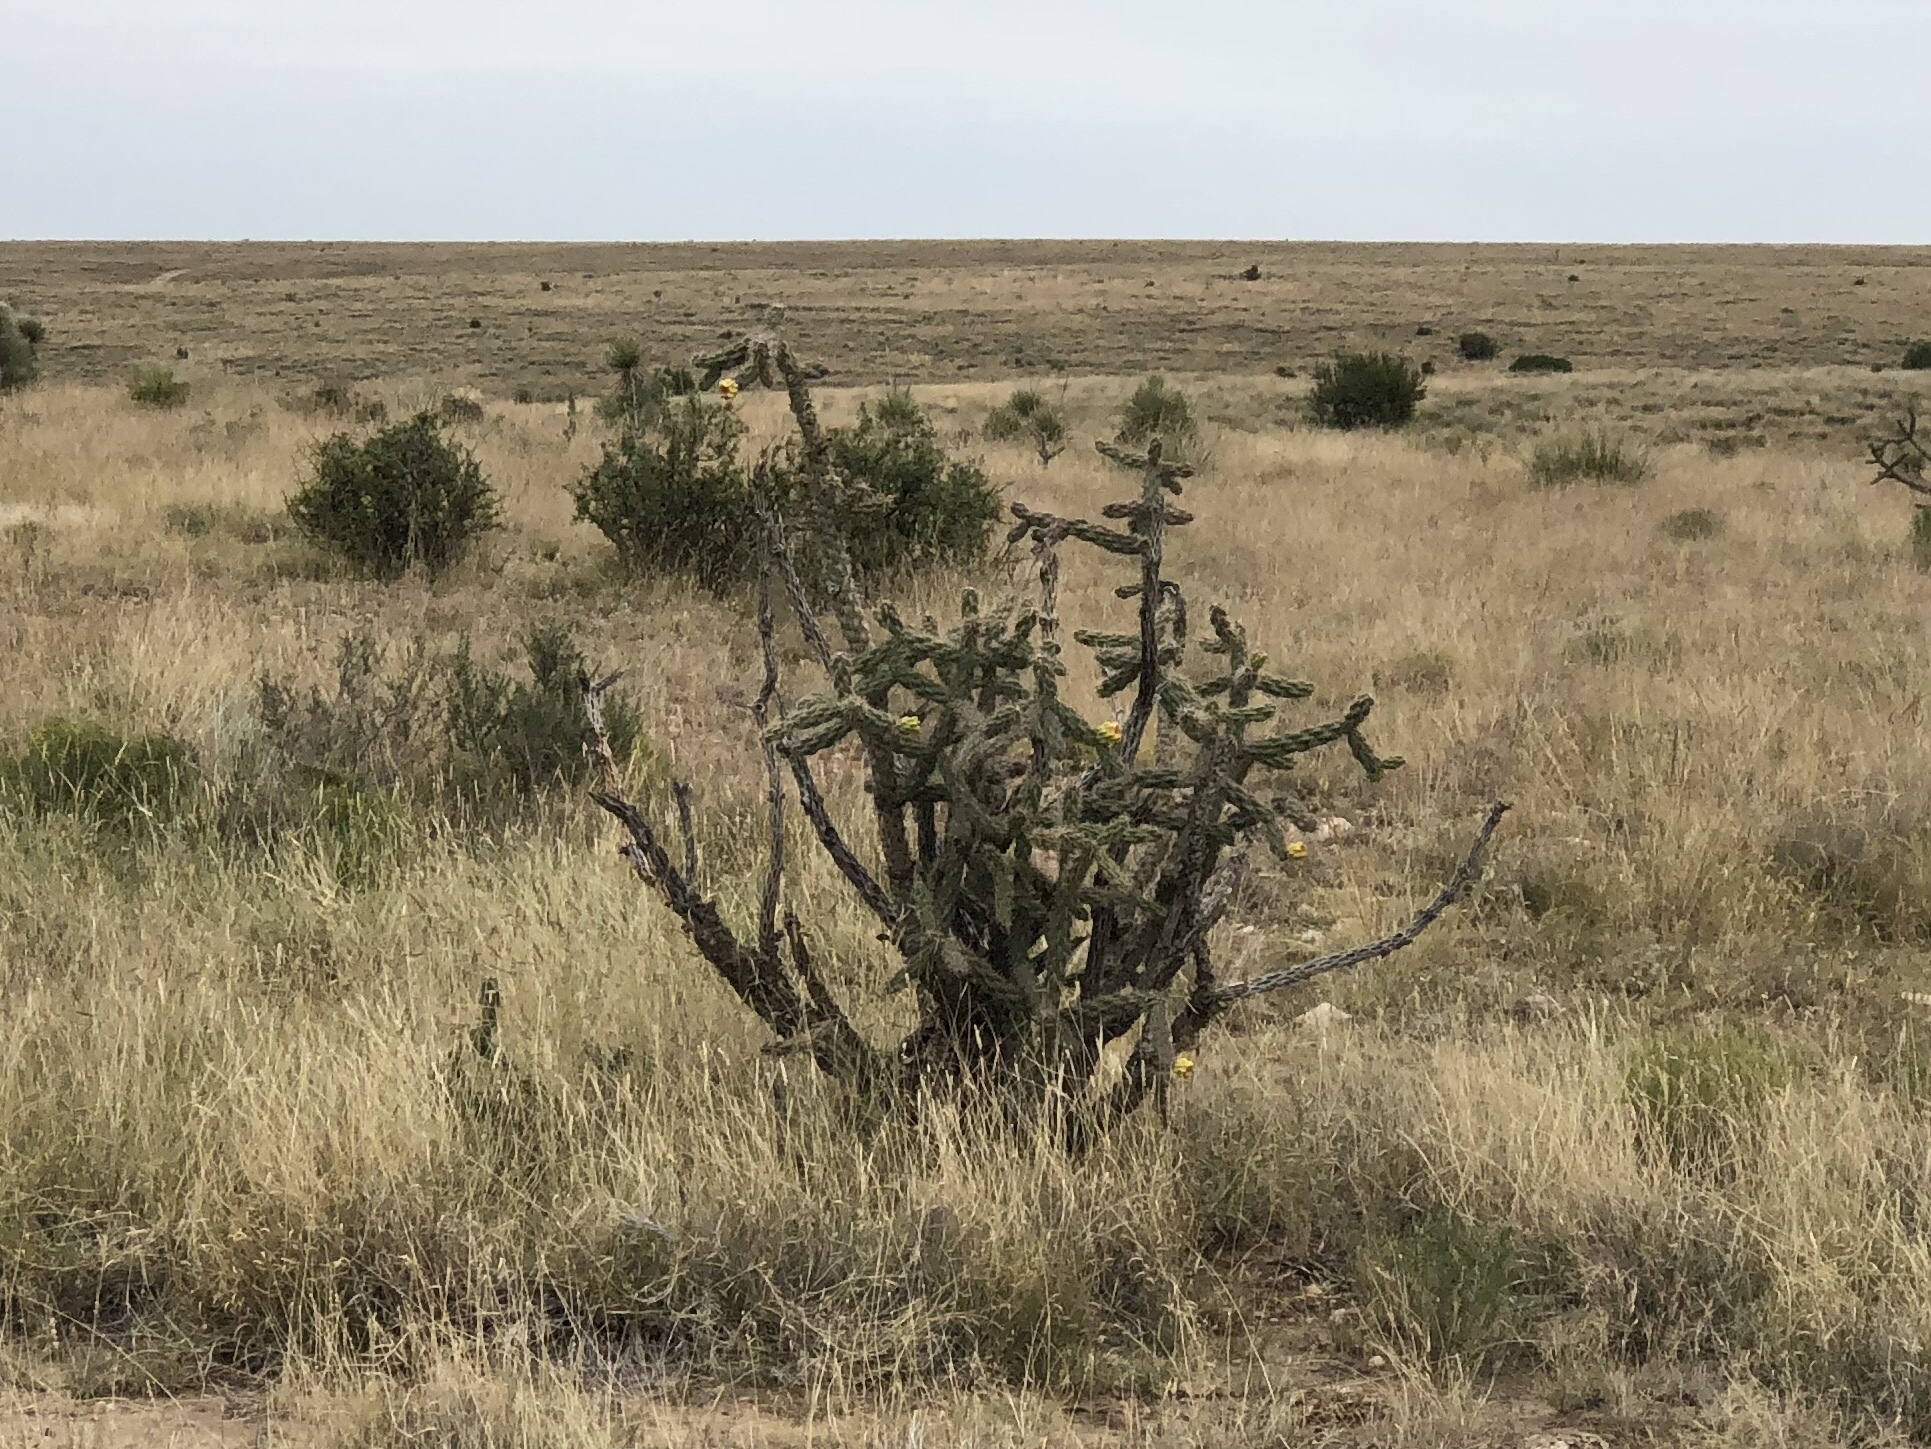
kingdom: Plantae
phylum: Tracheophyta
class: Magnoliopsida
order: Caryophyllales
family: Cactaceae
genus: Cylindropuntia
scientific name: Cylindropuntia imbricata
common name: Candelabrum cactus
